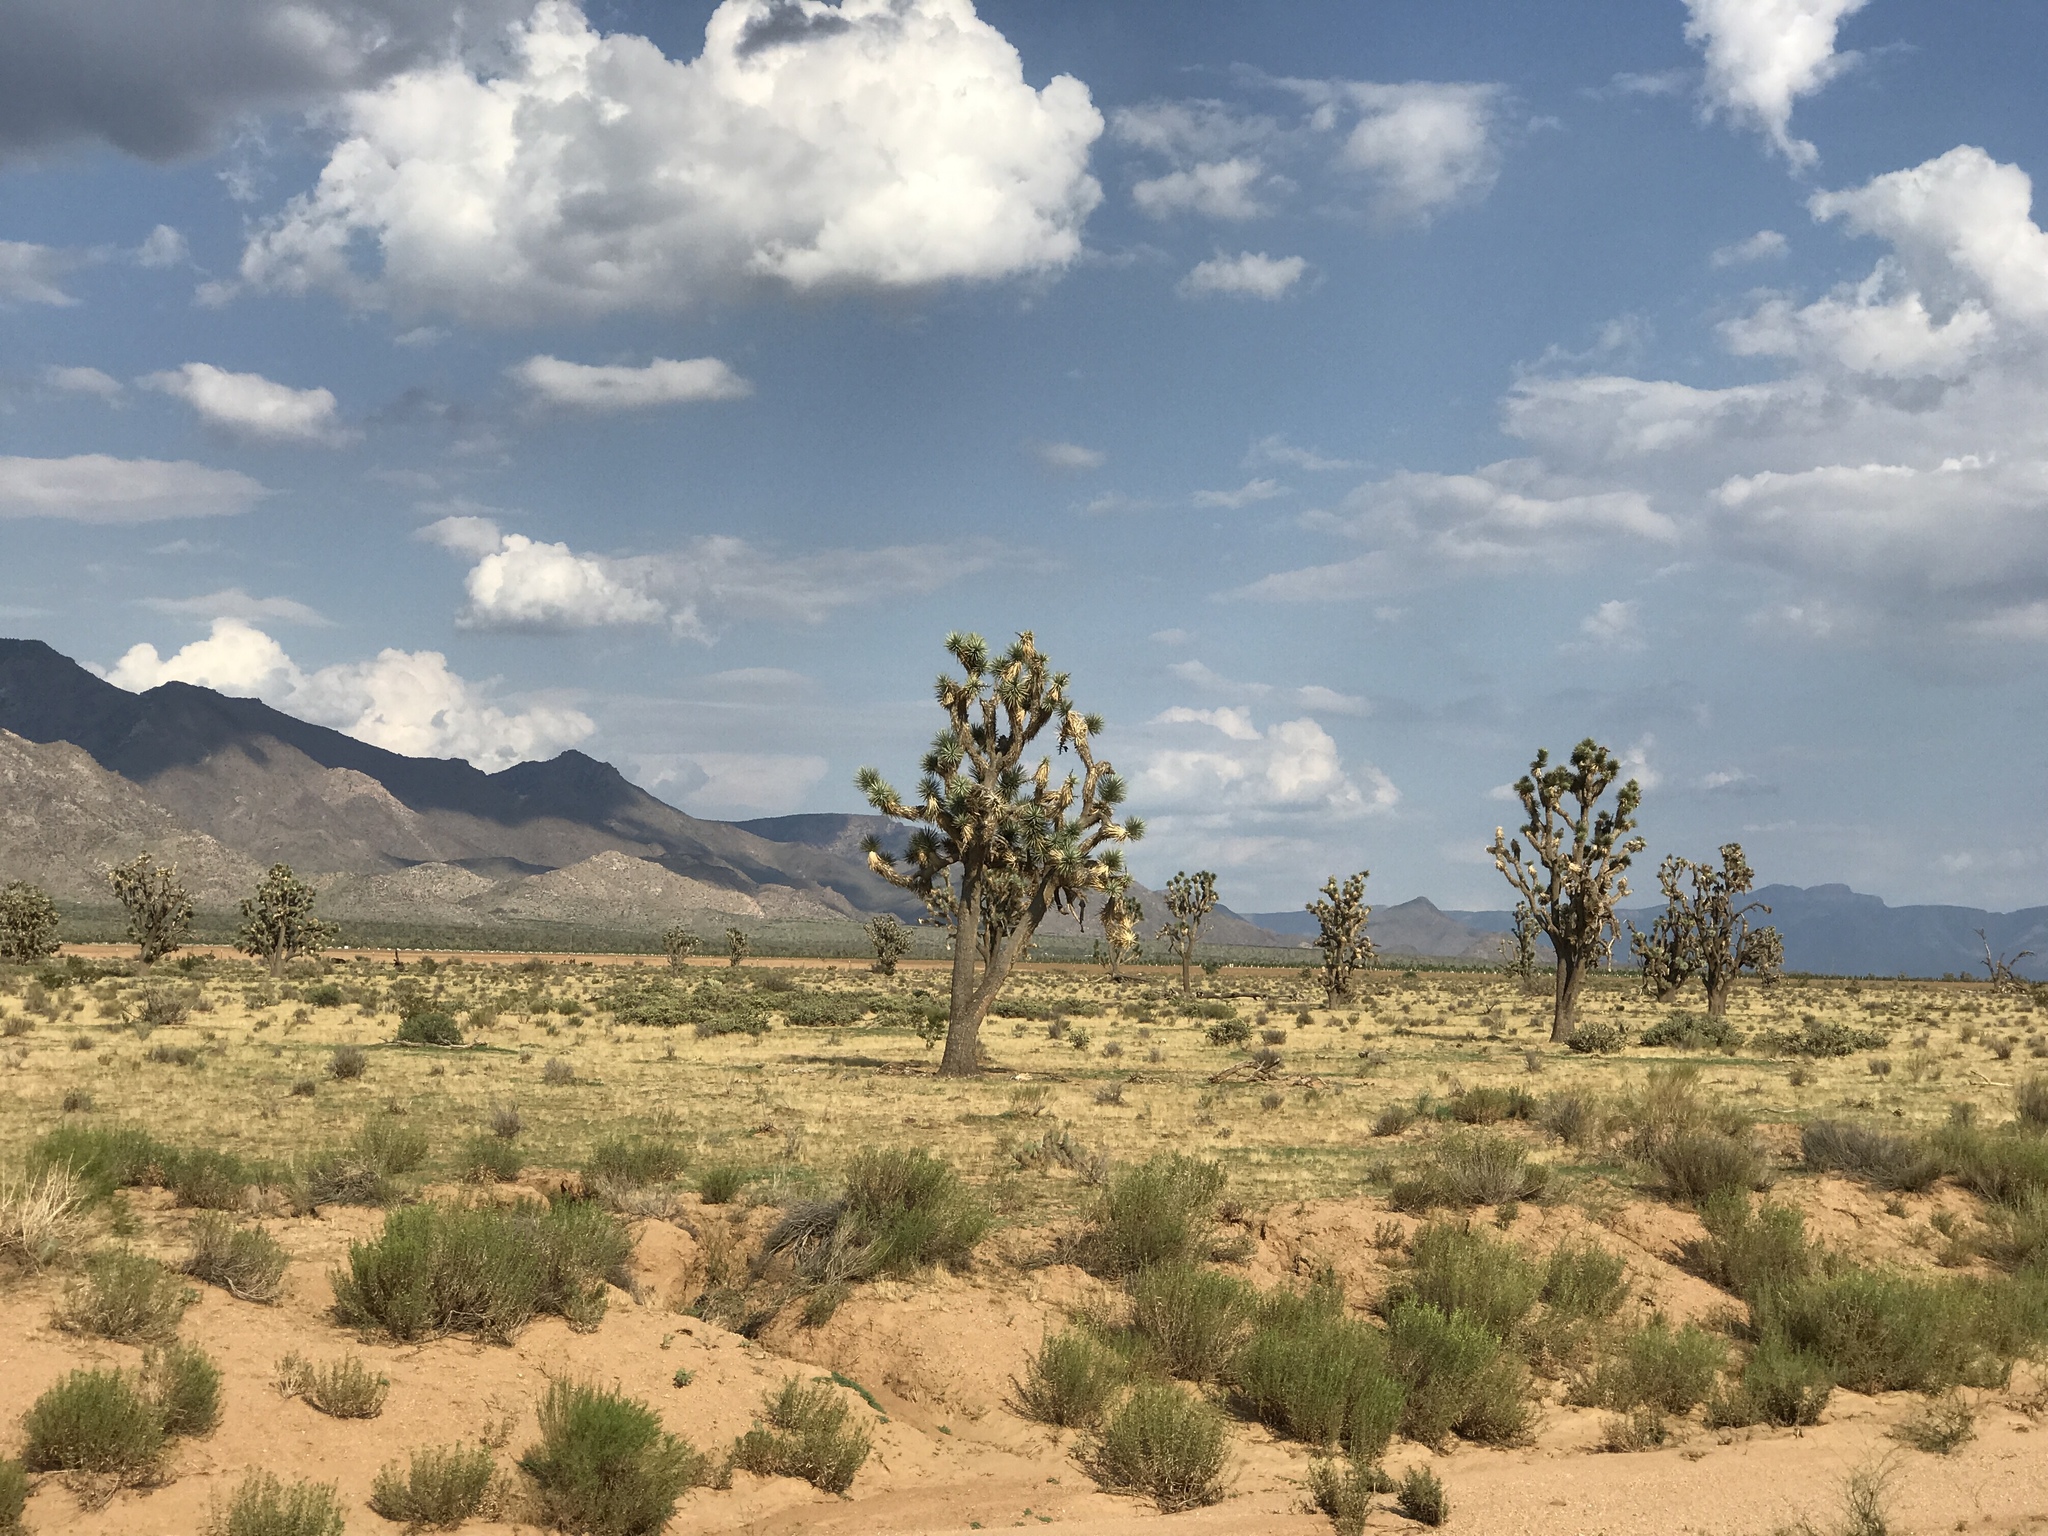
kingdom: Plantae
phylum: Tracheophyta
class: Liliopsida
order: Asparagales
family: Asparagaceae
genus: Yucca
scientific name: Yucca brevifolia
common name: Joshua tree
